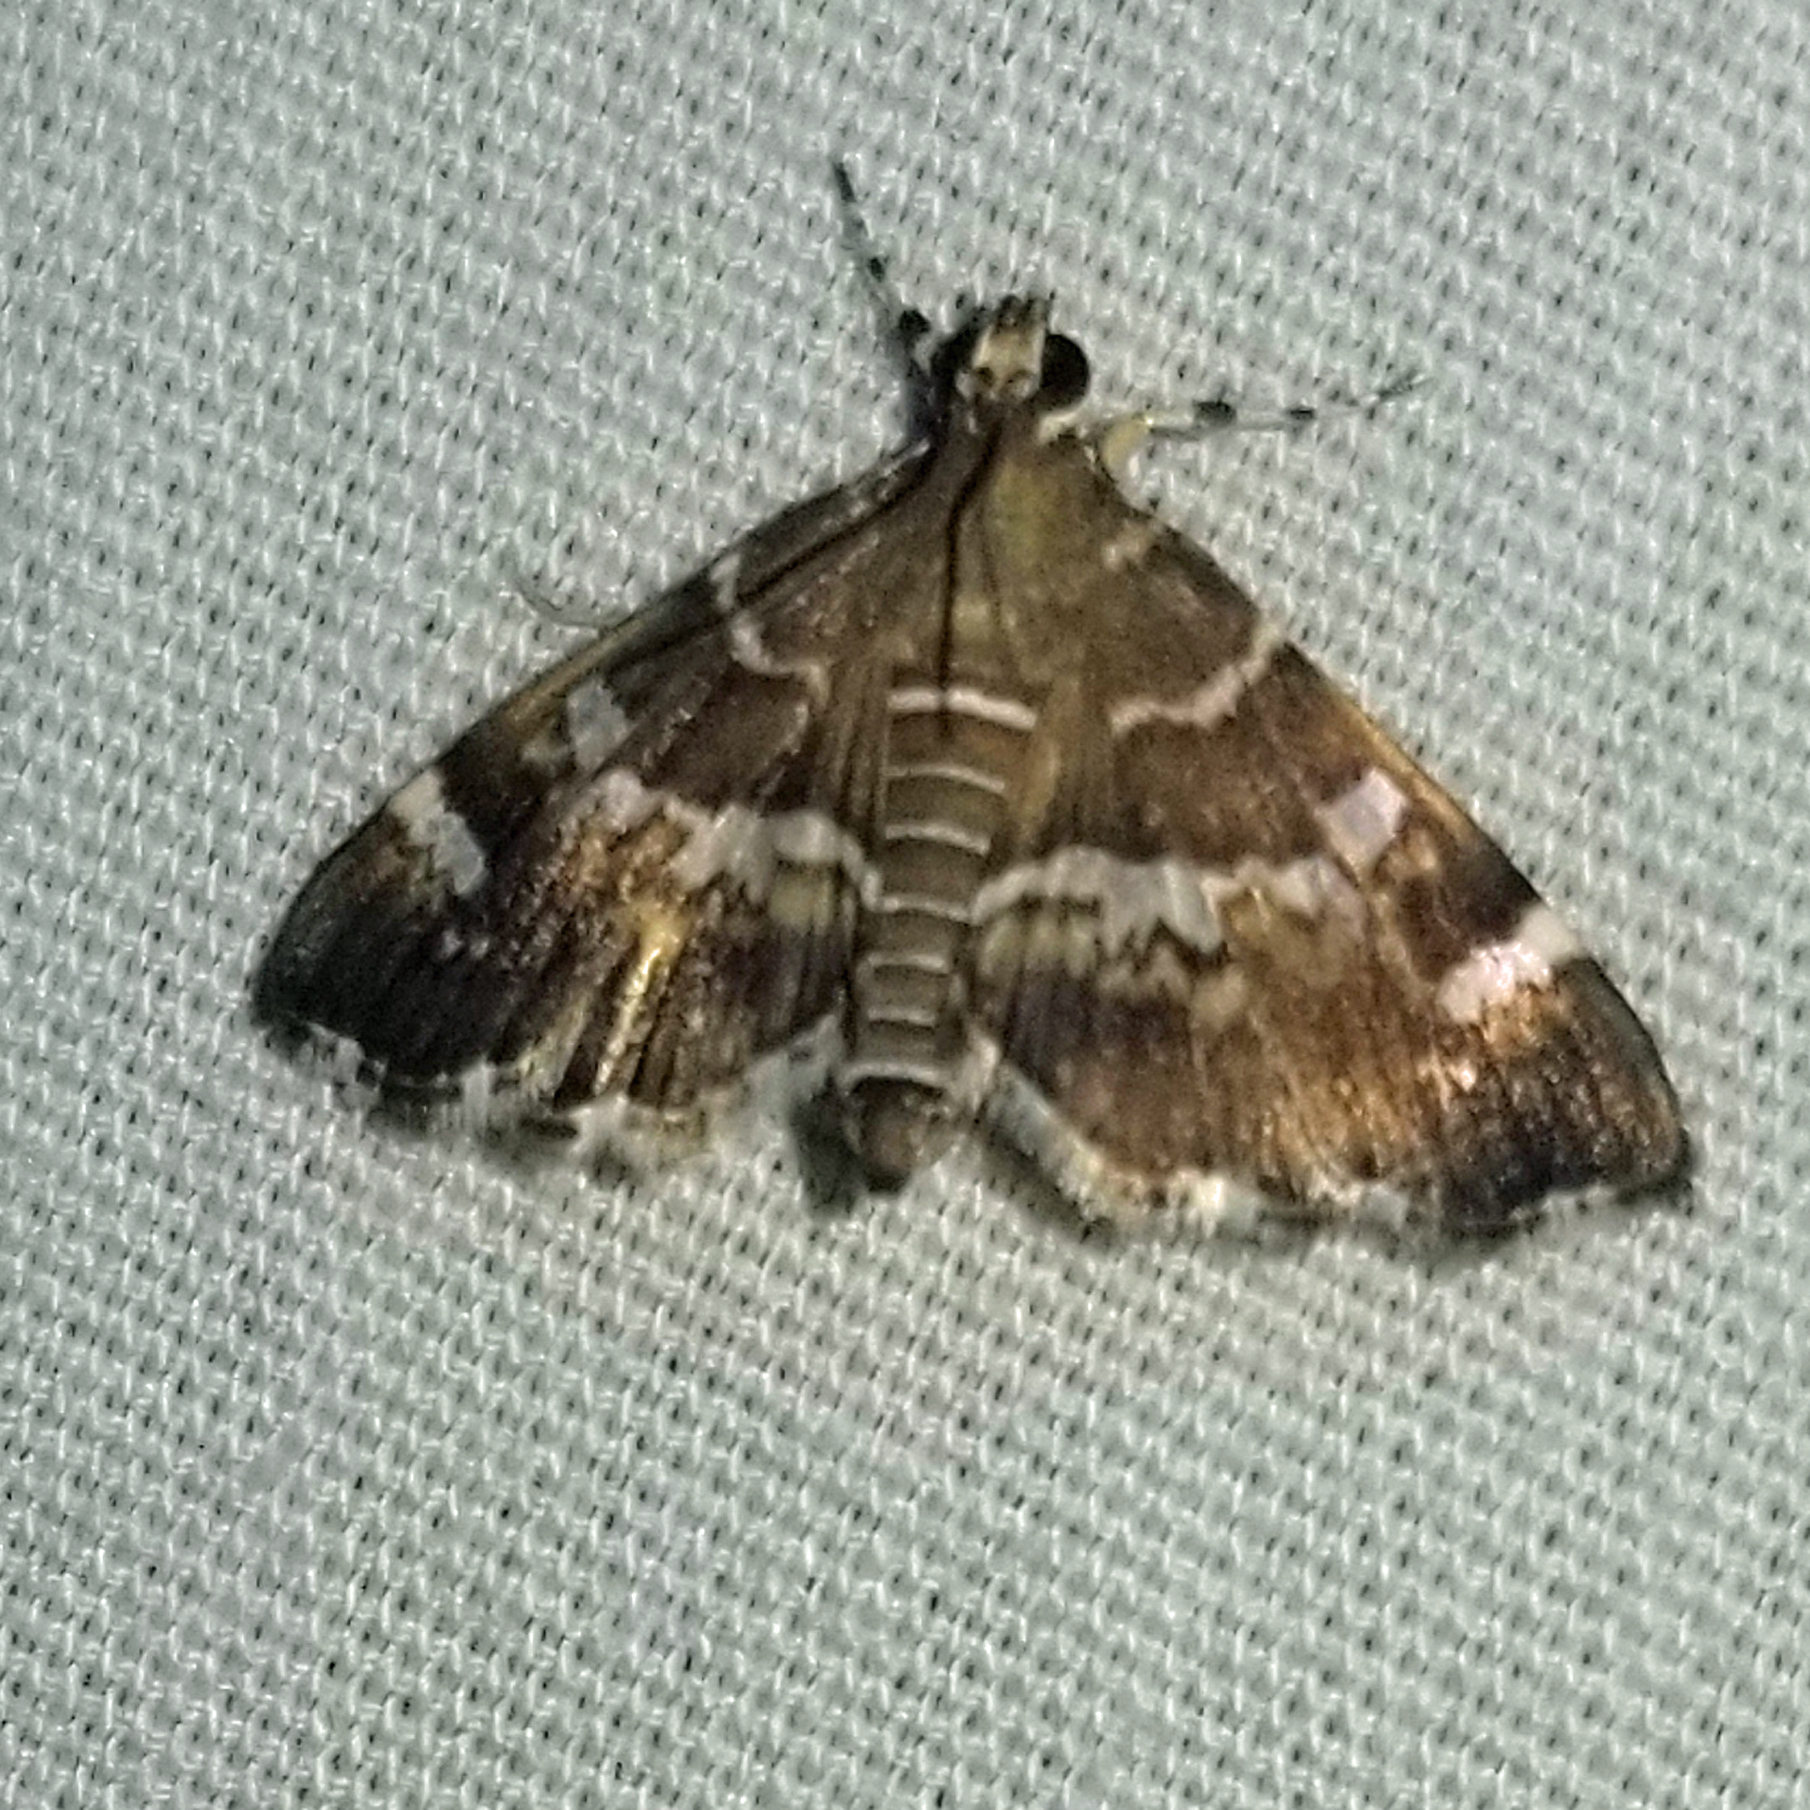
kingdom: Animalia
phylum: Arthropoda
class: Insecta
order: Lepidoptera
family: Crambidae
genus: Hymenia
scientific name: Hymenia perspectalis
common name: Spotted beet webworm
